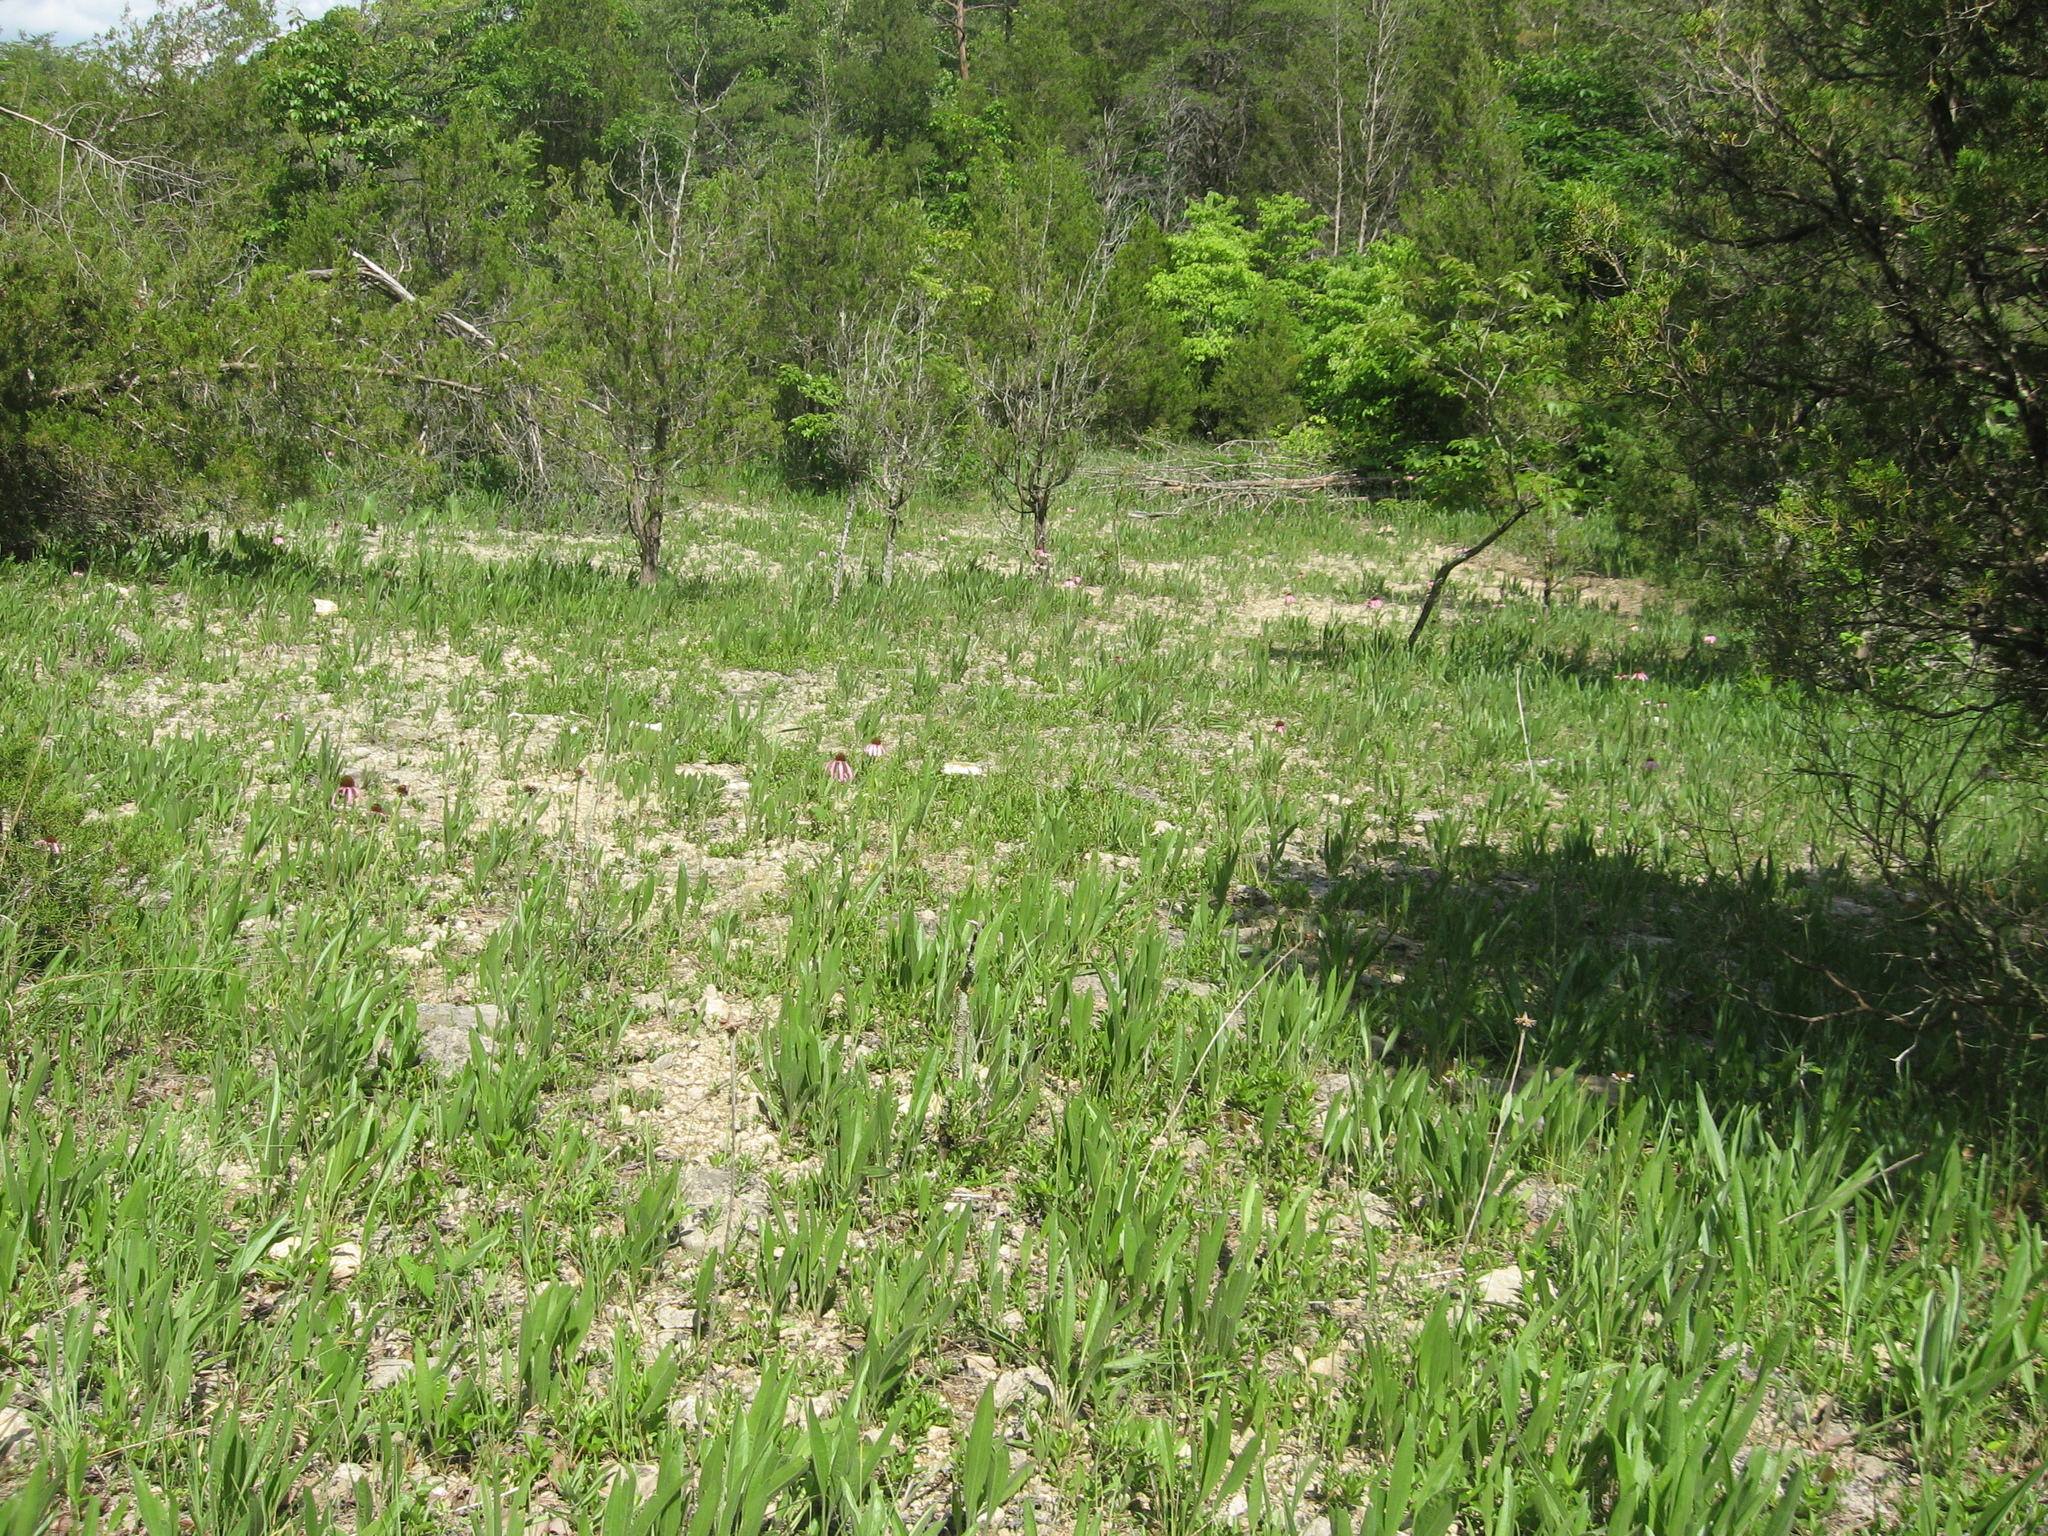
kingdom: Plantae
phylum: Tracheophyta
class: Magnoliopsida
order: Asterales
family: Asteraceae
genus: Echinacea
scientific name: Echinacea simulata
